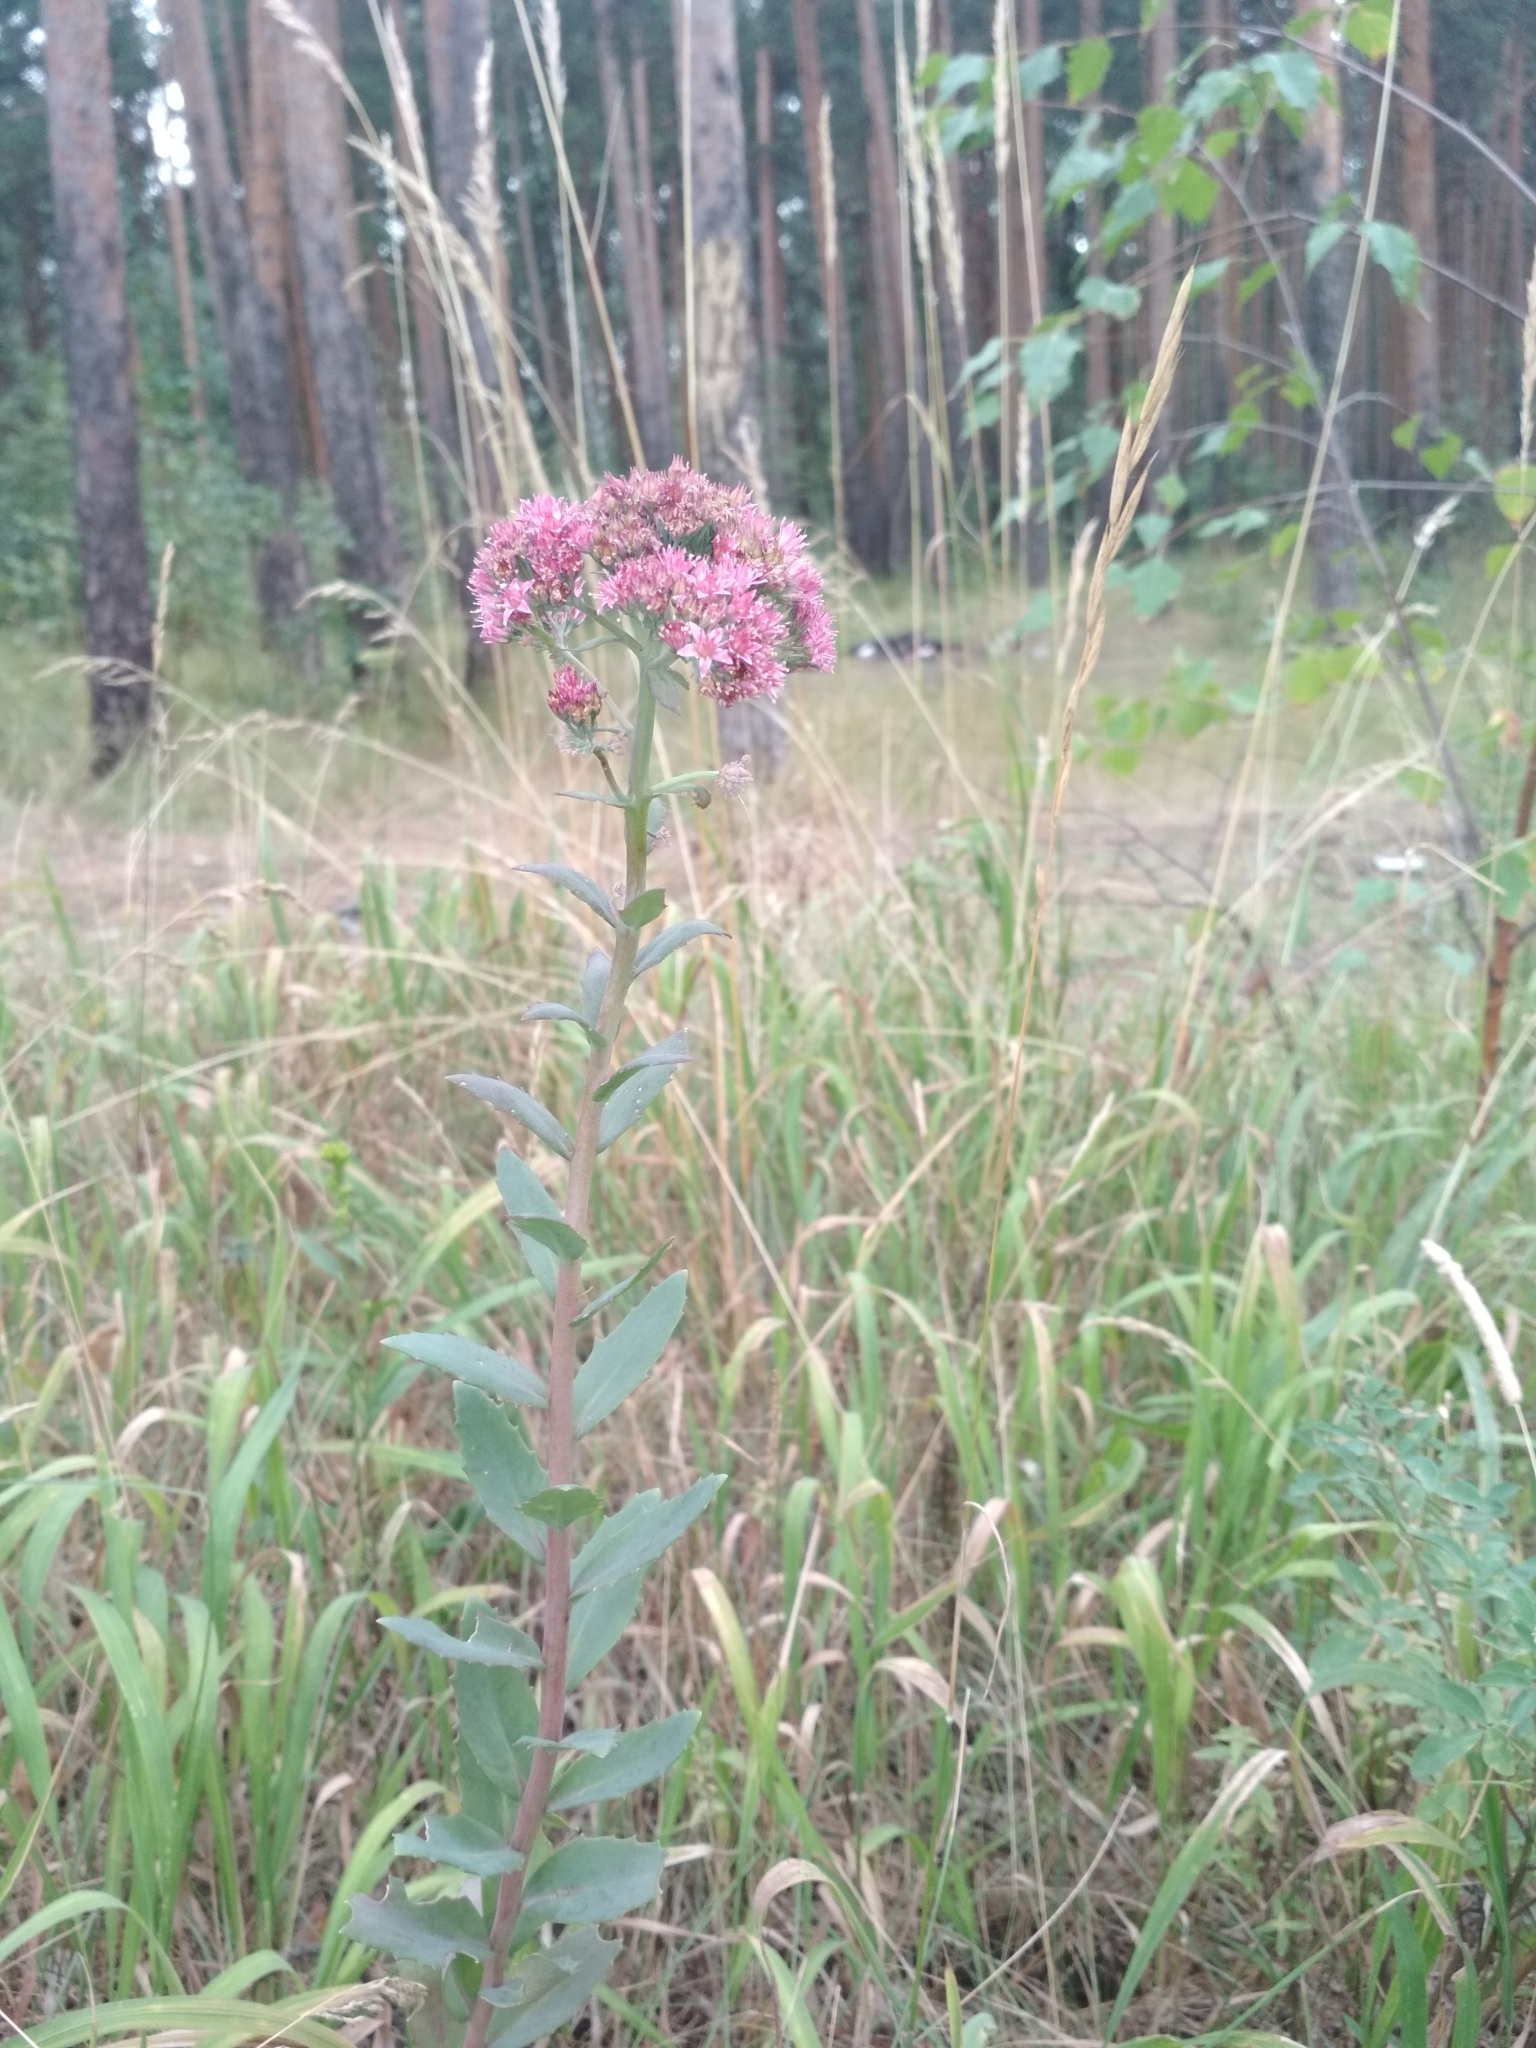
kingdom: Plantae
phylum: Tracheophyta
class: Magnoliopsida
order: Saxifragales
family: Crassulaceae
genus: Hylotelephium
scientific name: Hylotelephium telephium
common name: Live-forever
